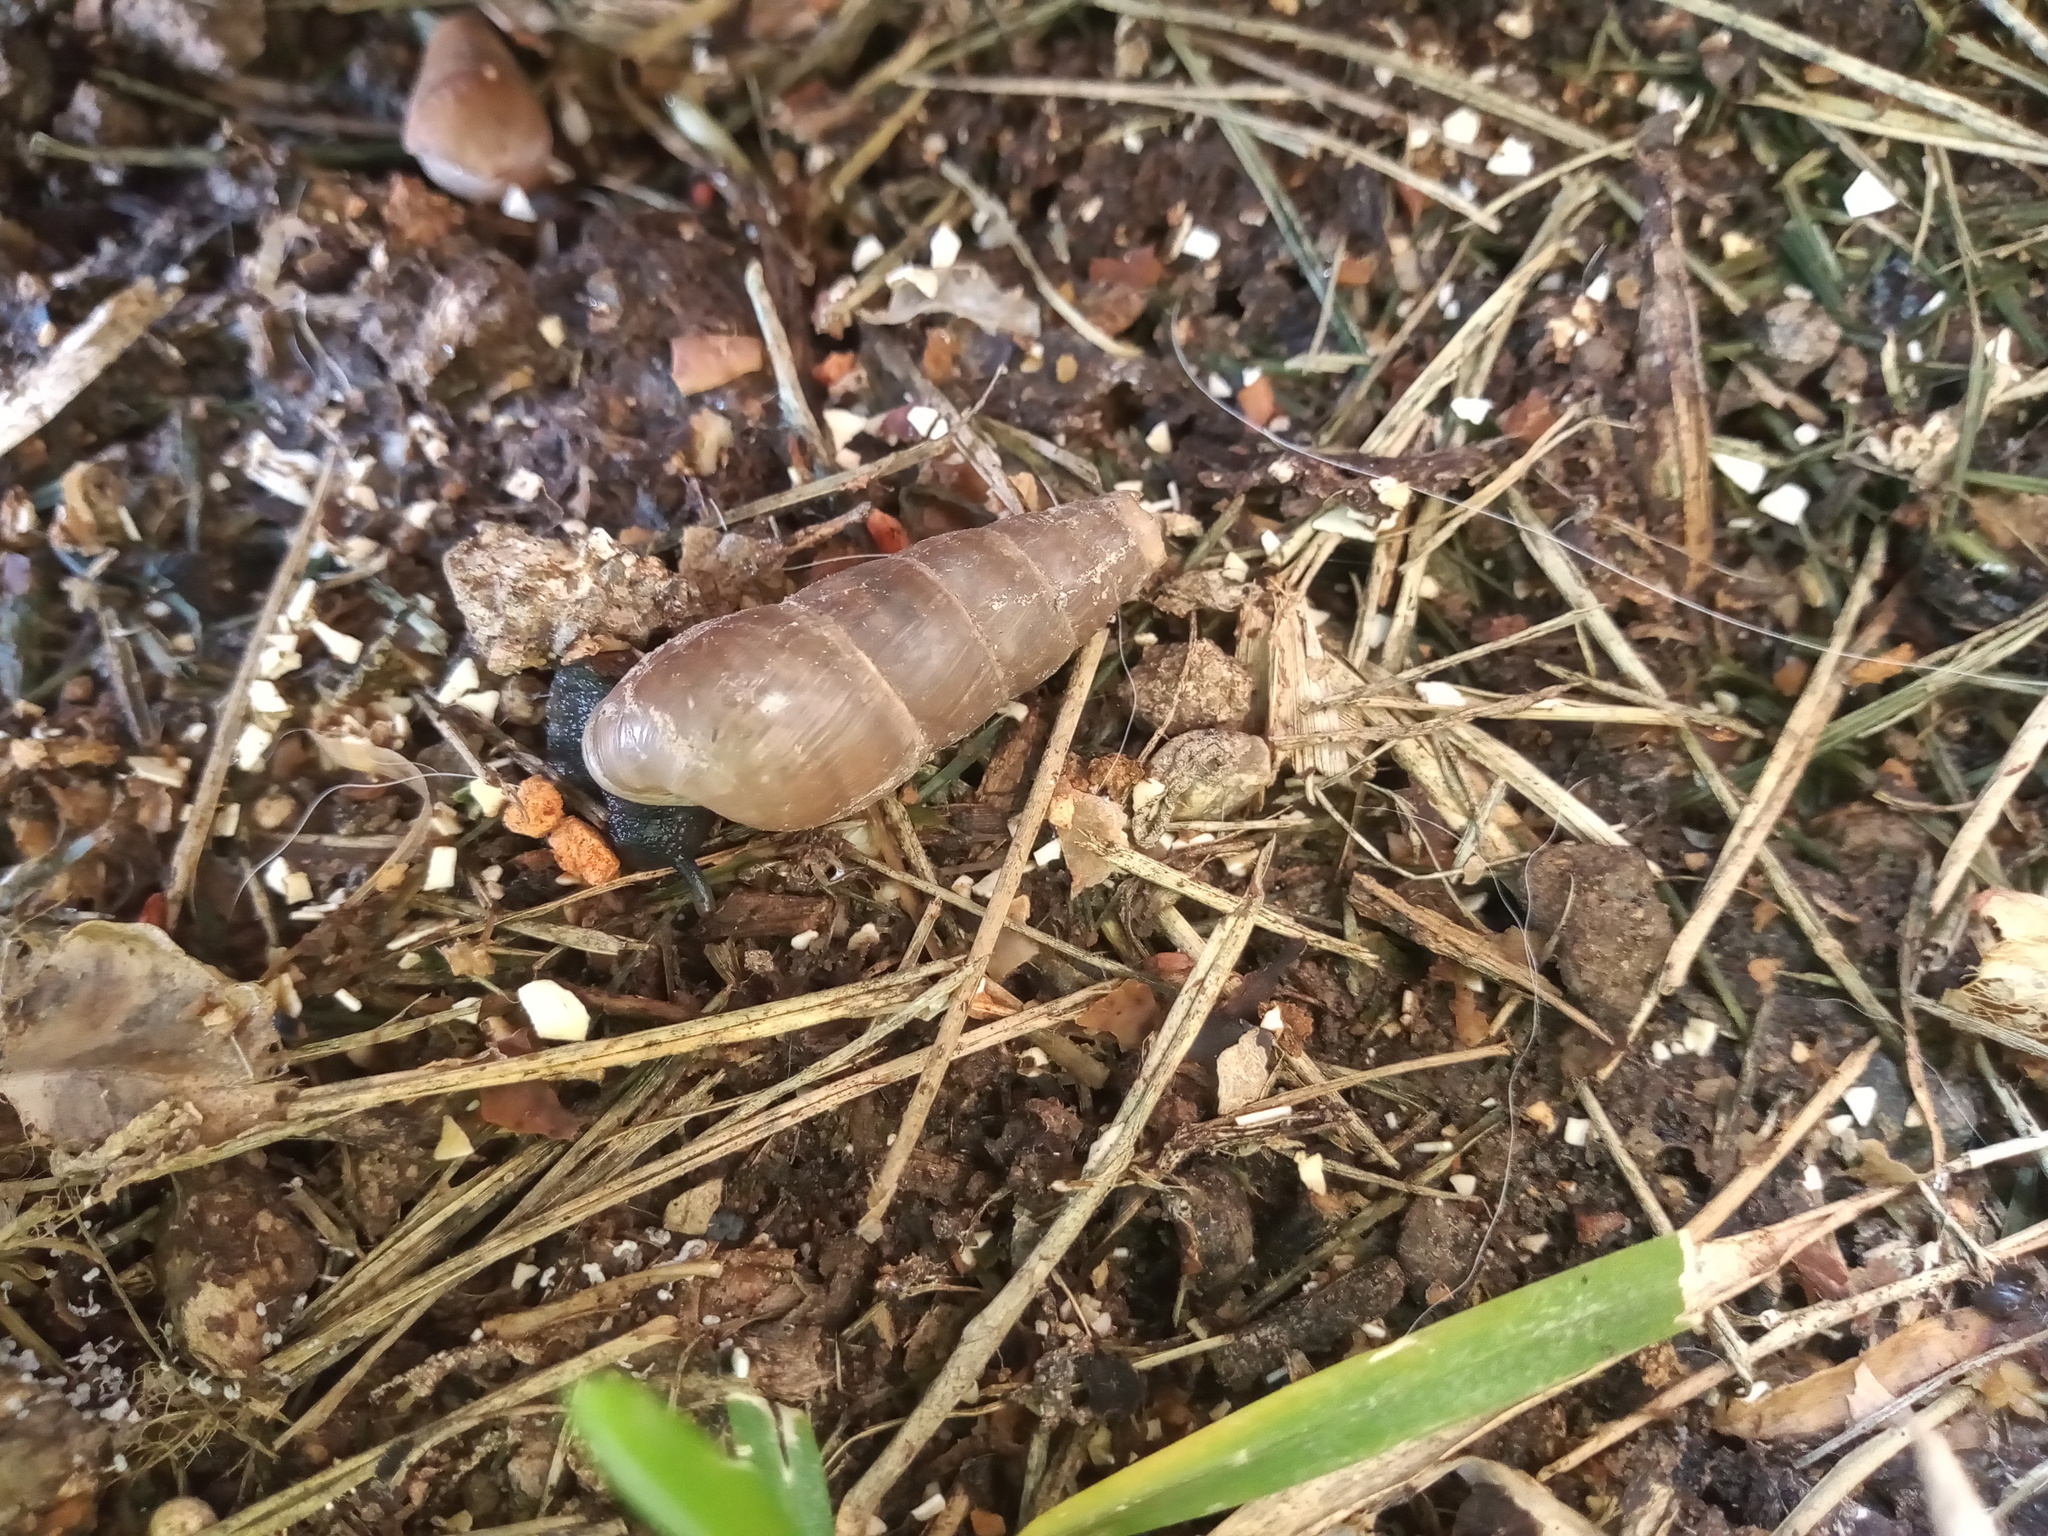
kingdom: Animalia
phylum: Mollusca
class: Gastropoda
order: Stylommatophora
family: Achatinidae
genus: Rumina
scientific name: Rumina decollata
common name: Decollate snail
